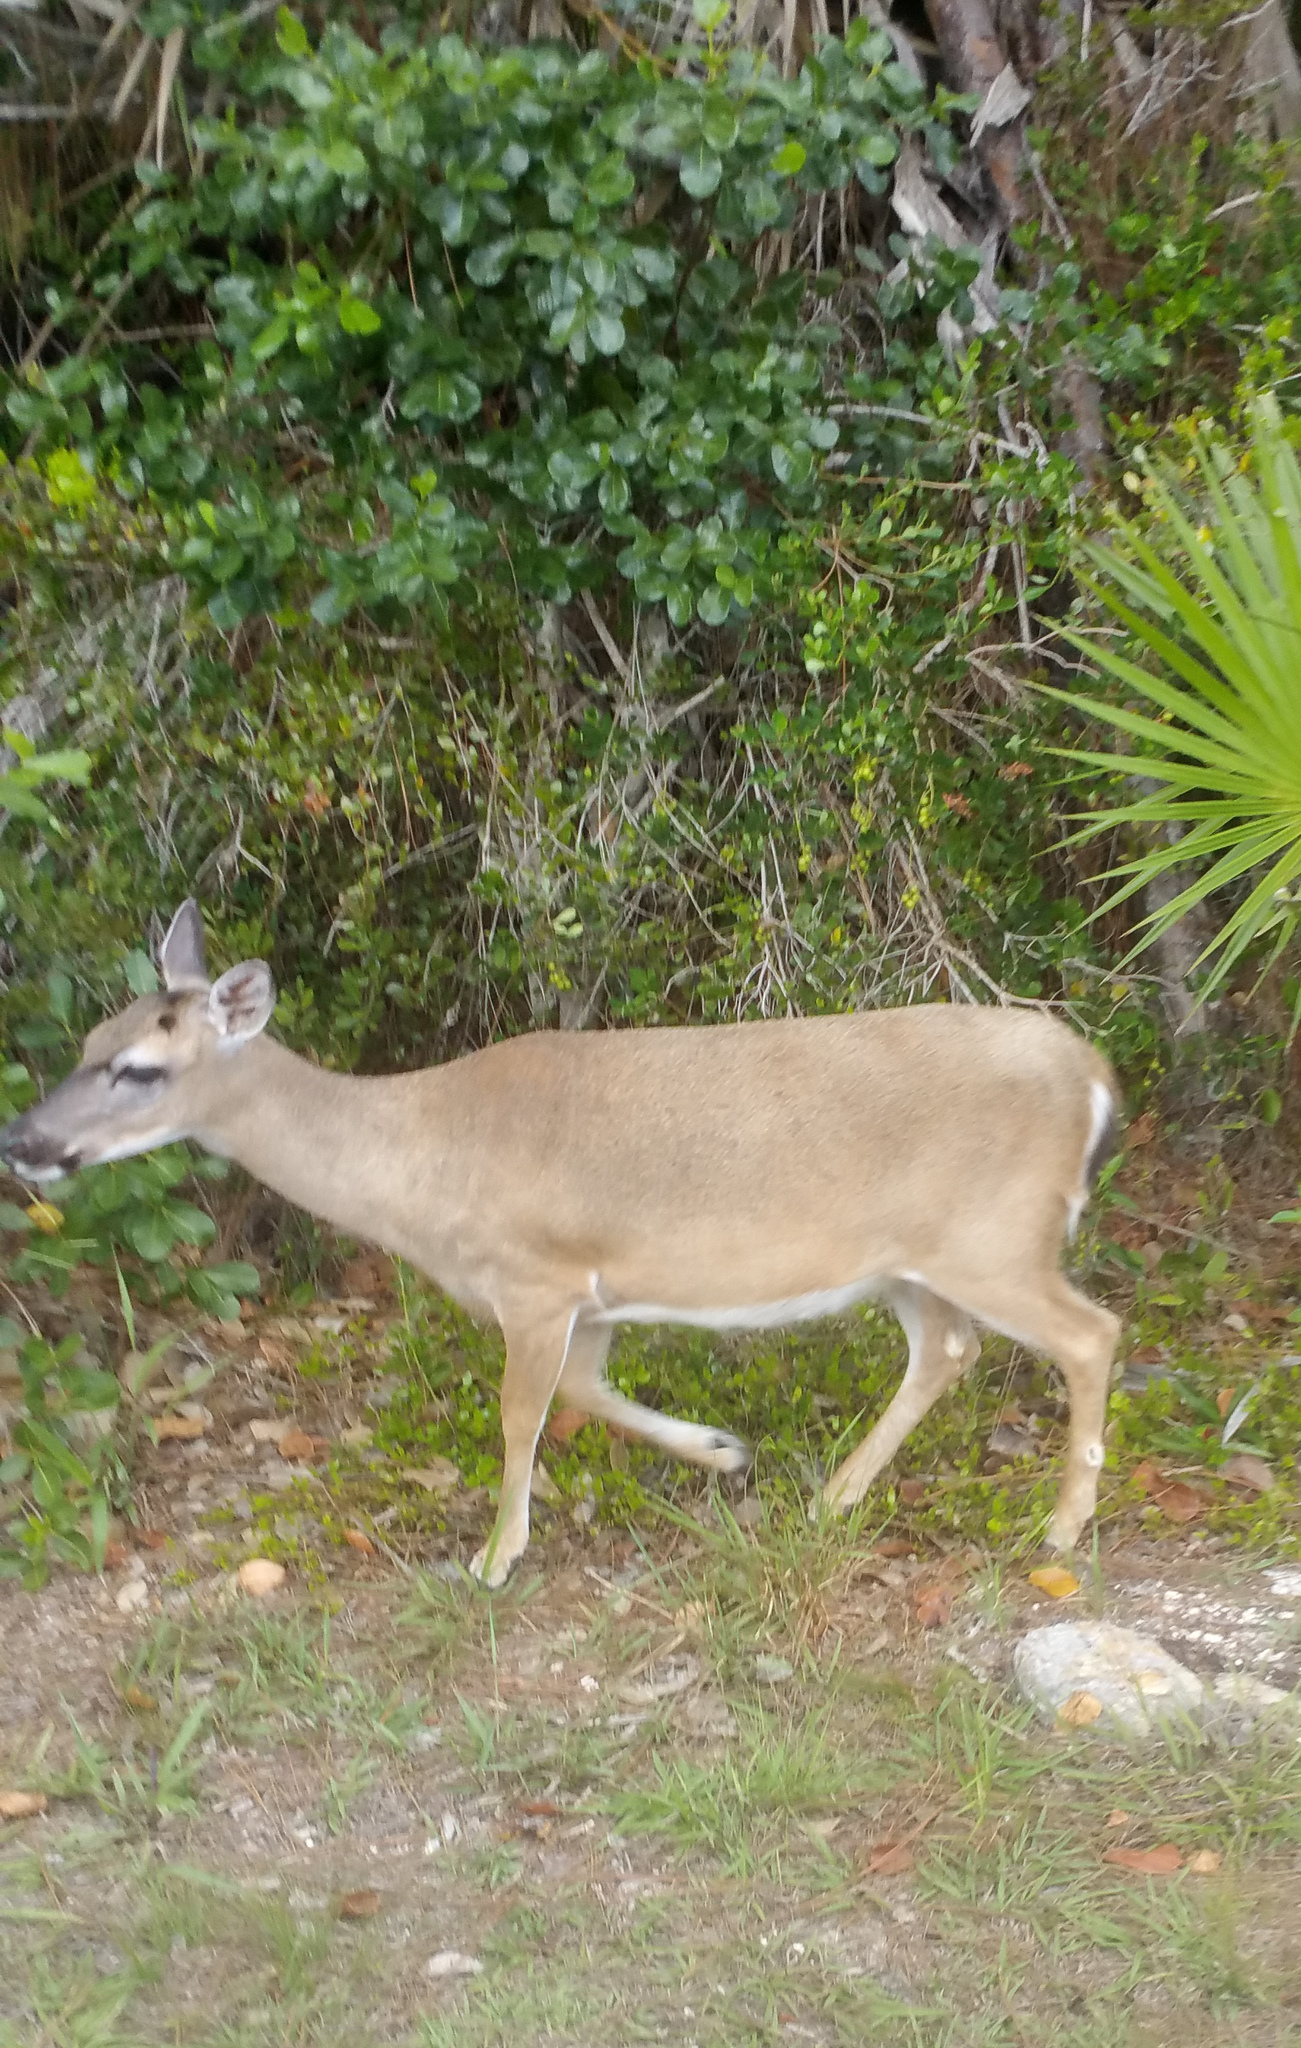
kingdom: Animalia
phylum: Chordata
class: Mammalia
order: Artiodactyla
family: Cervidae
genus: Odocoileus
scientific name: Odocoileus virginianus
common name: White-tailed deer
